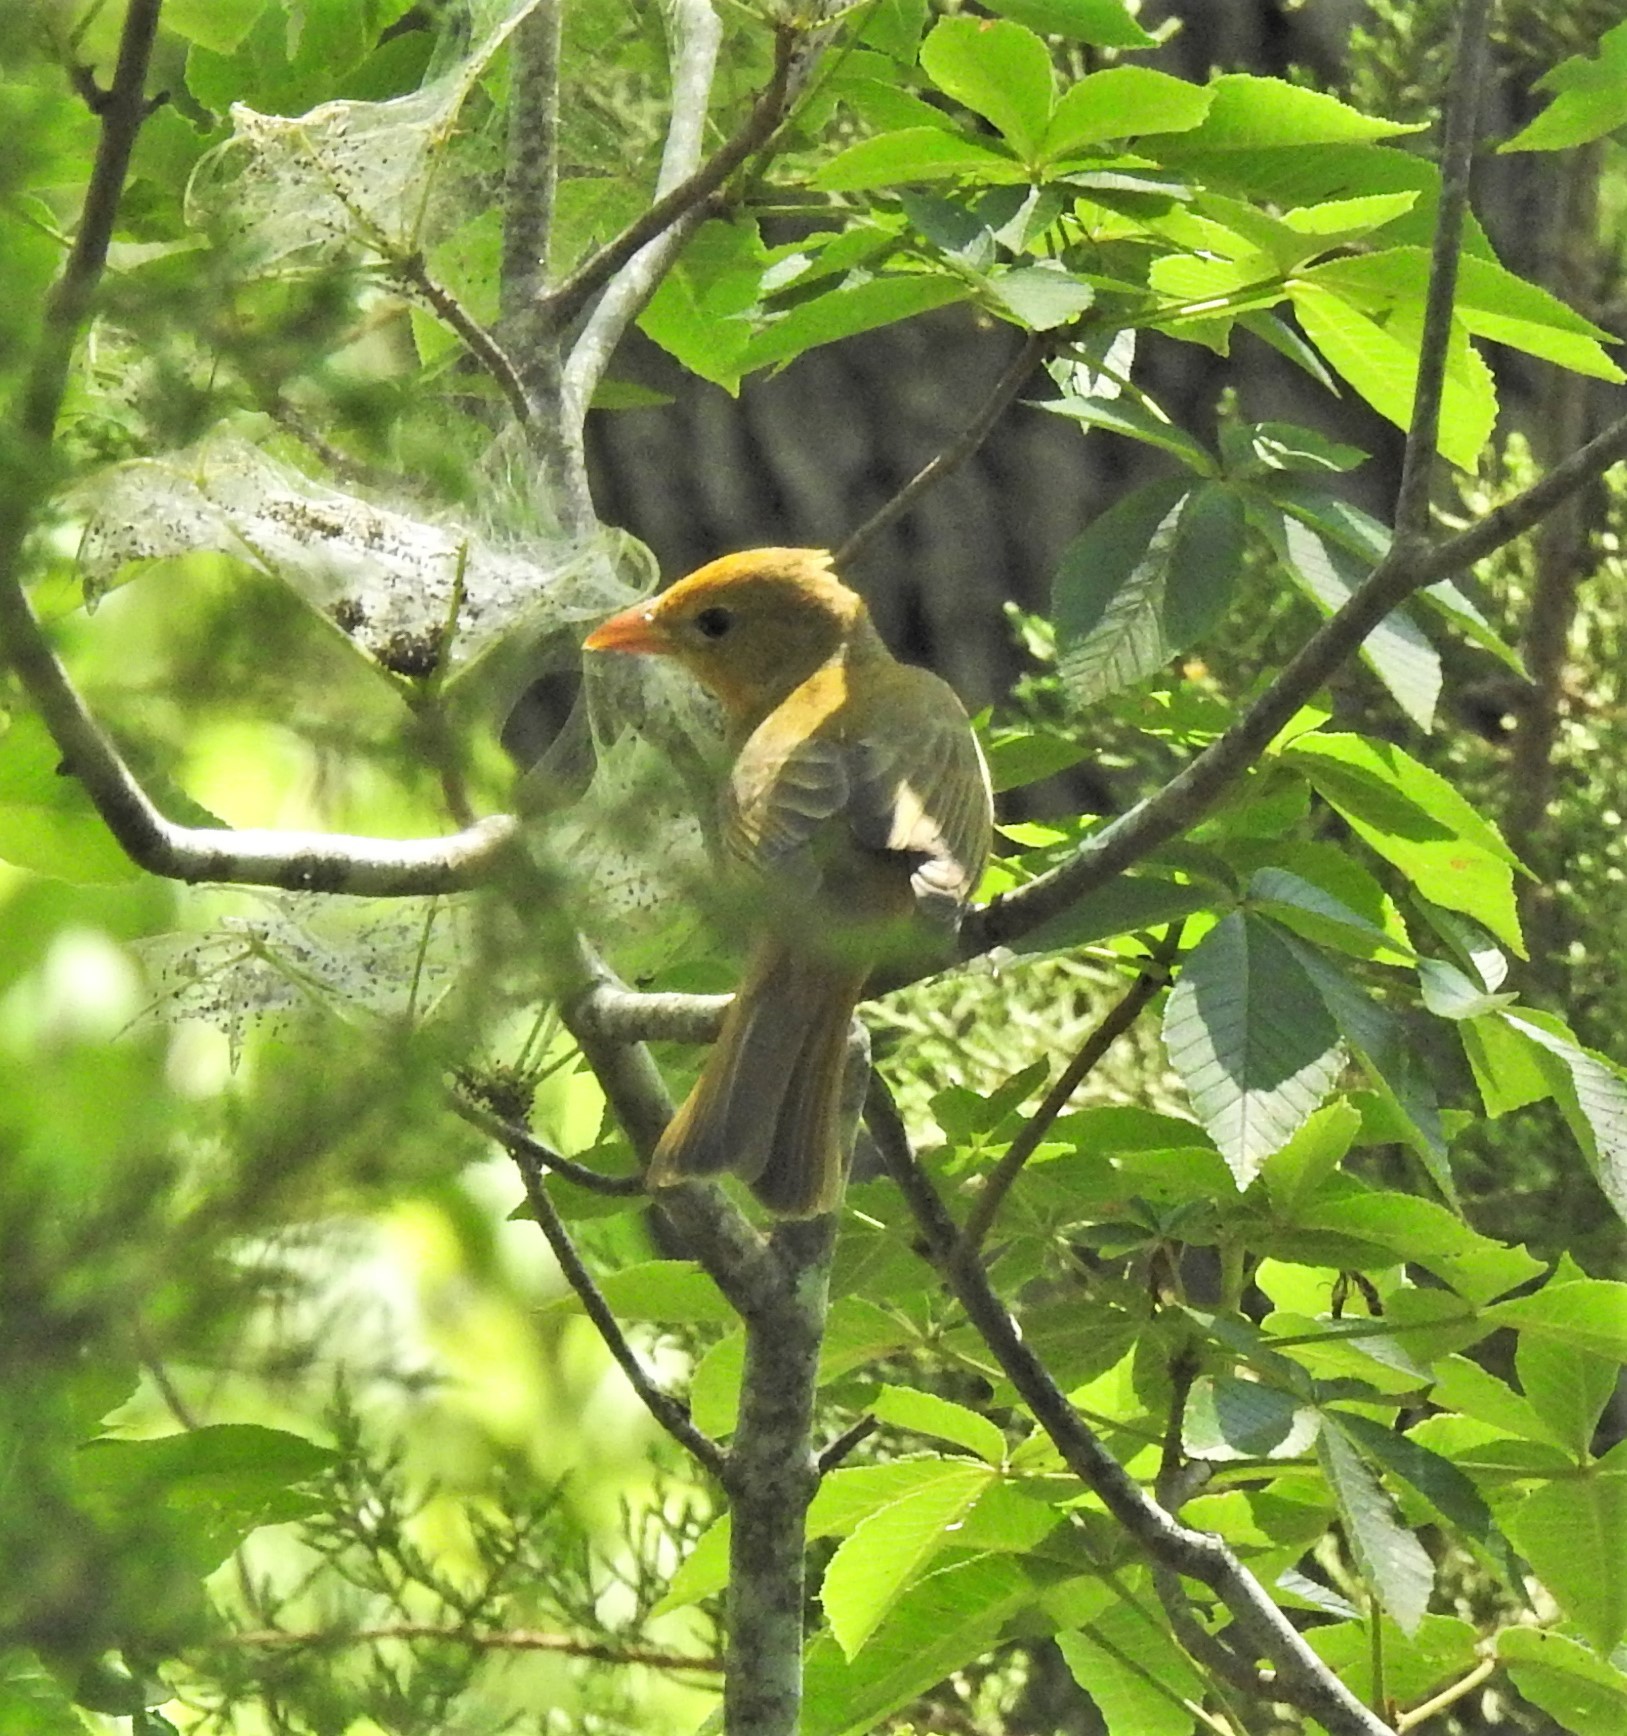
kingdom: Animalia
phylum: Chordata
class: Aves
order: Passeriformes
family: Cardinalidae
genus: Piranga
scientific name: Piranga rubra
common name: Summer tanager
